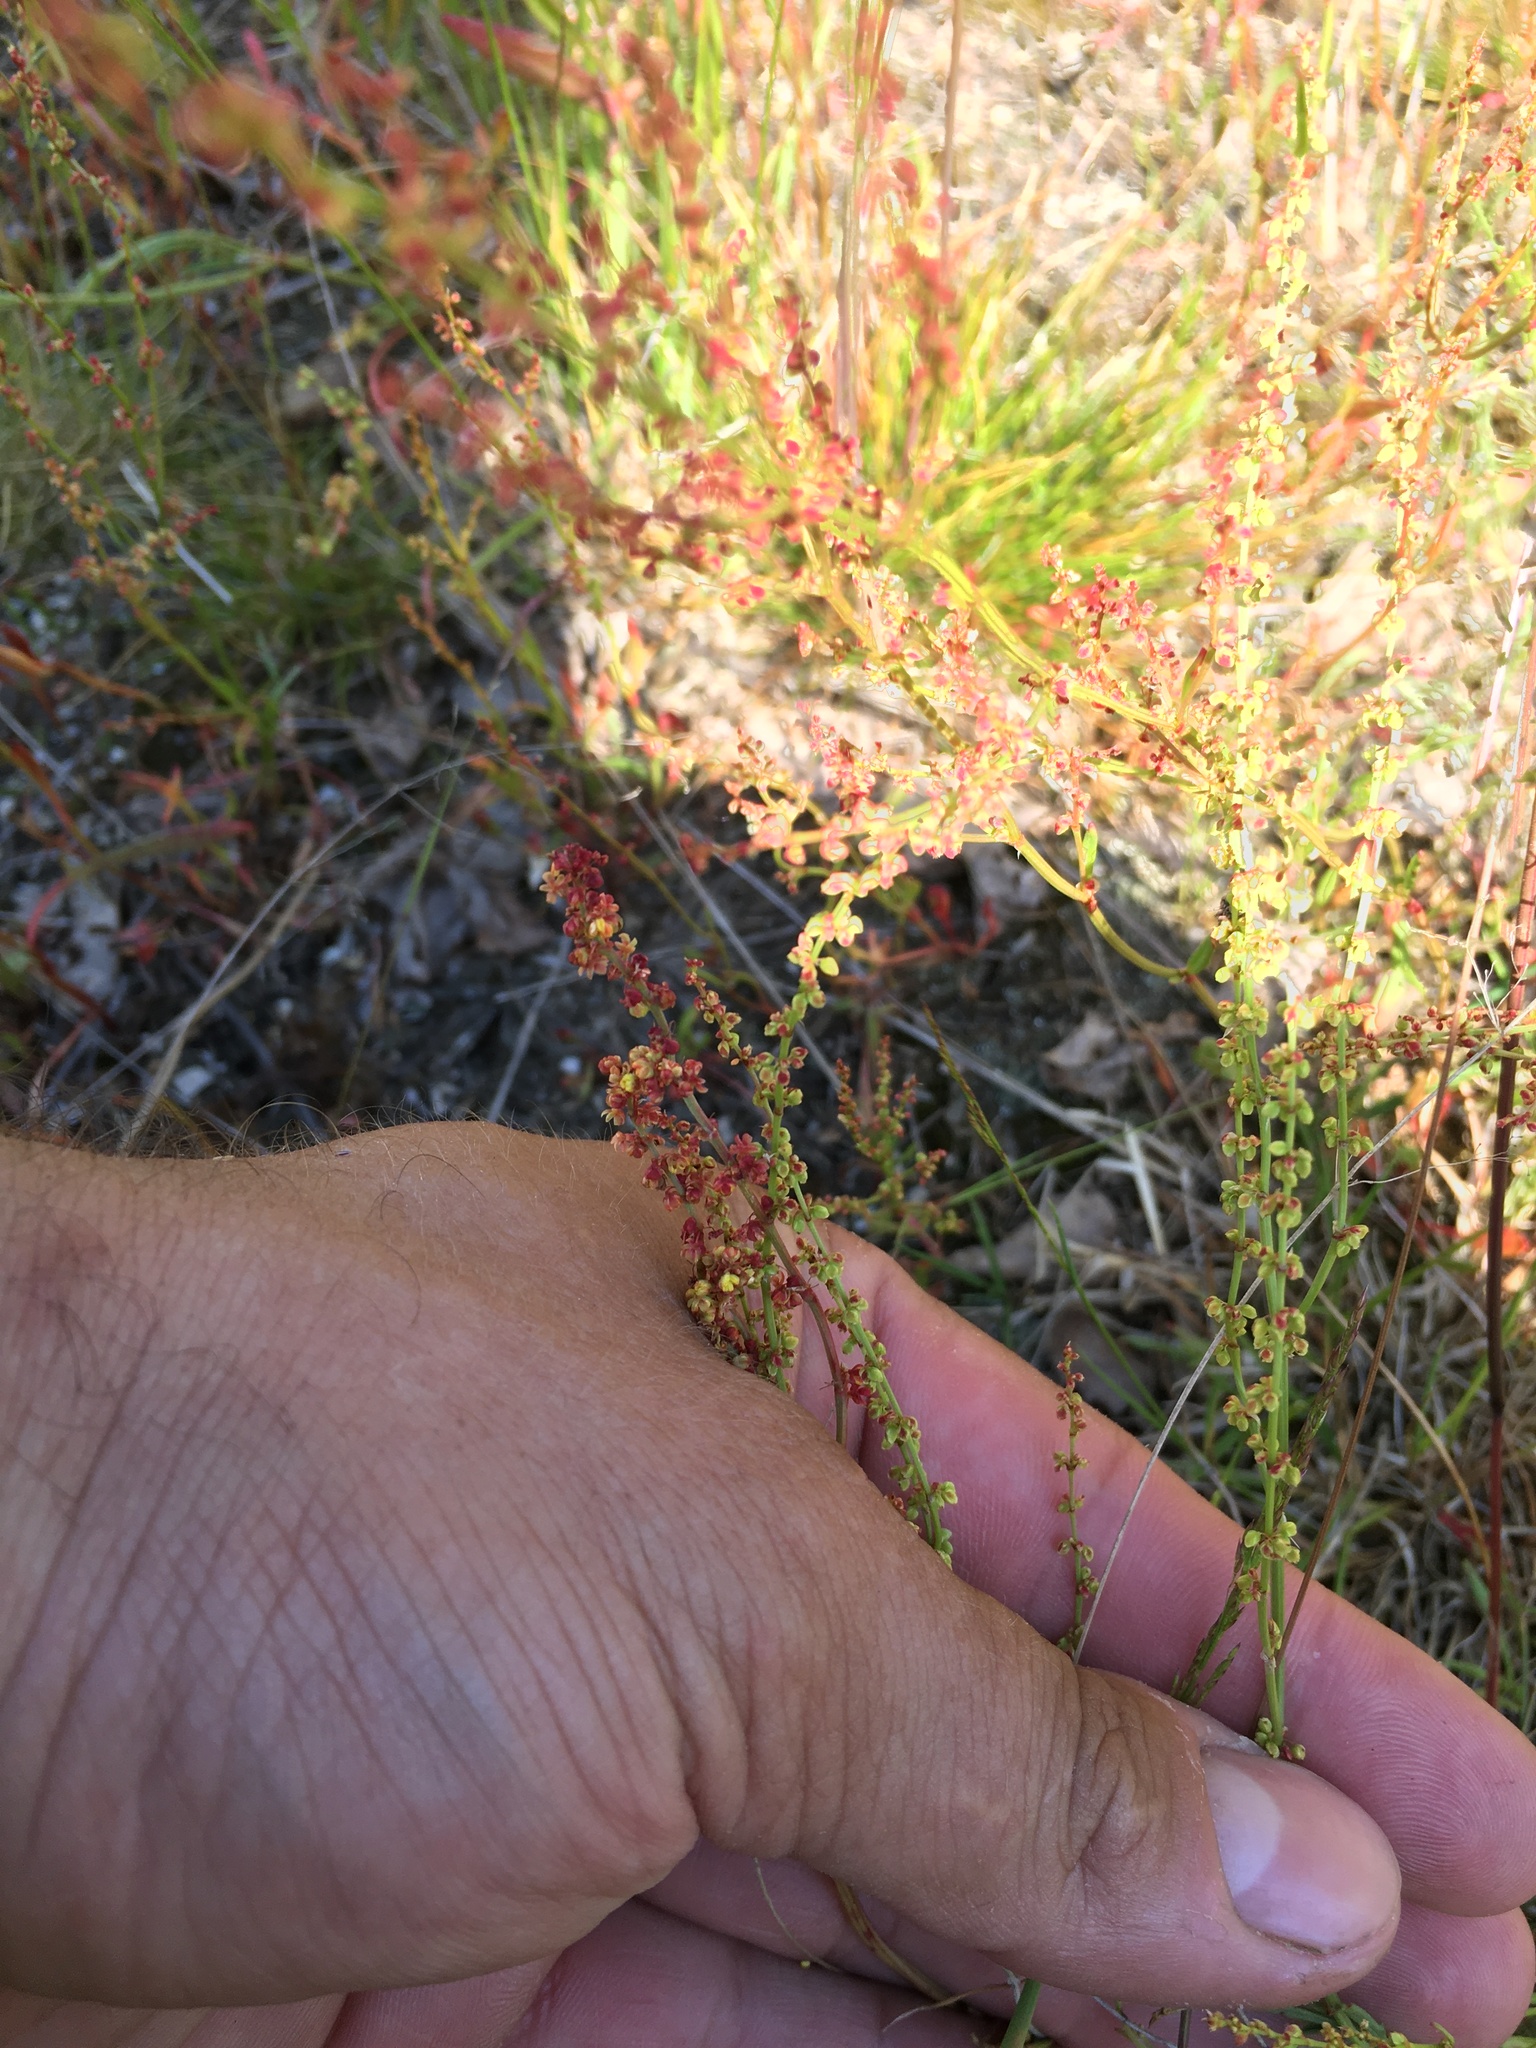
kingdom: Plantae
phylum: Tracheophyta
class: Magnoliopsida
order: Caryophyllales
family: Polygonaceae
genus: Rumex
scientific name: Rumex acetosella
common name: Common sheep sorrel
